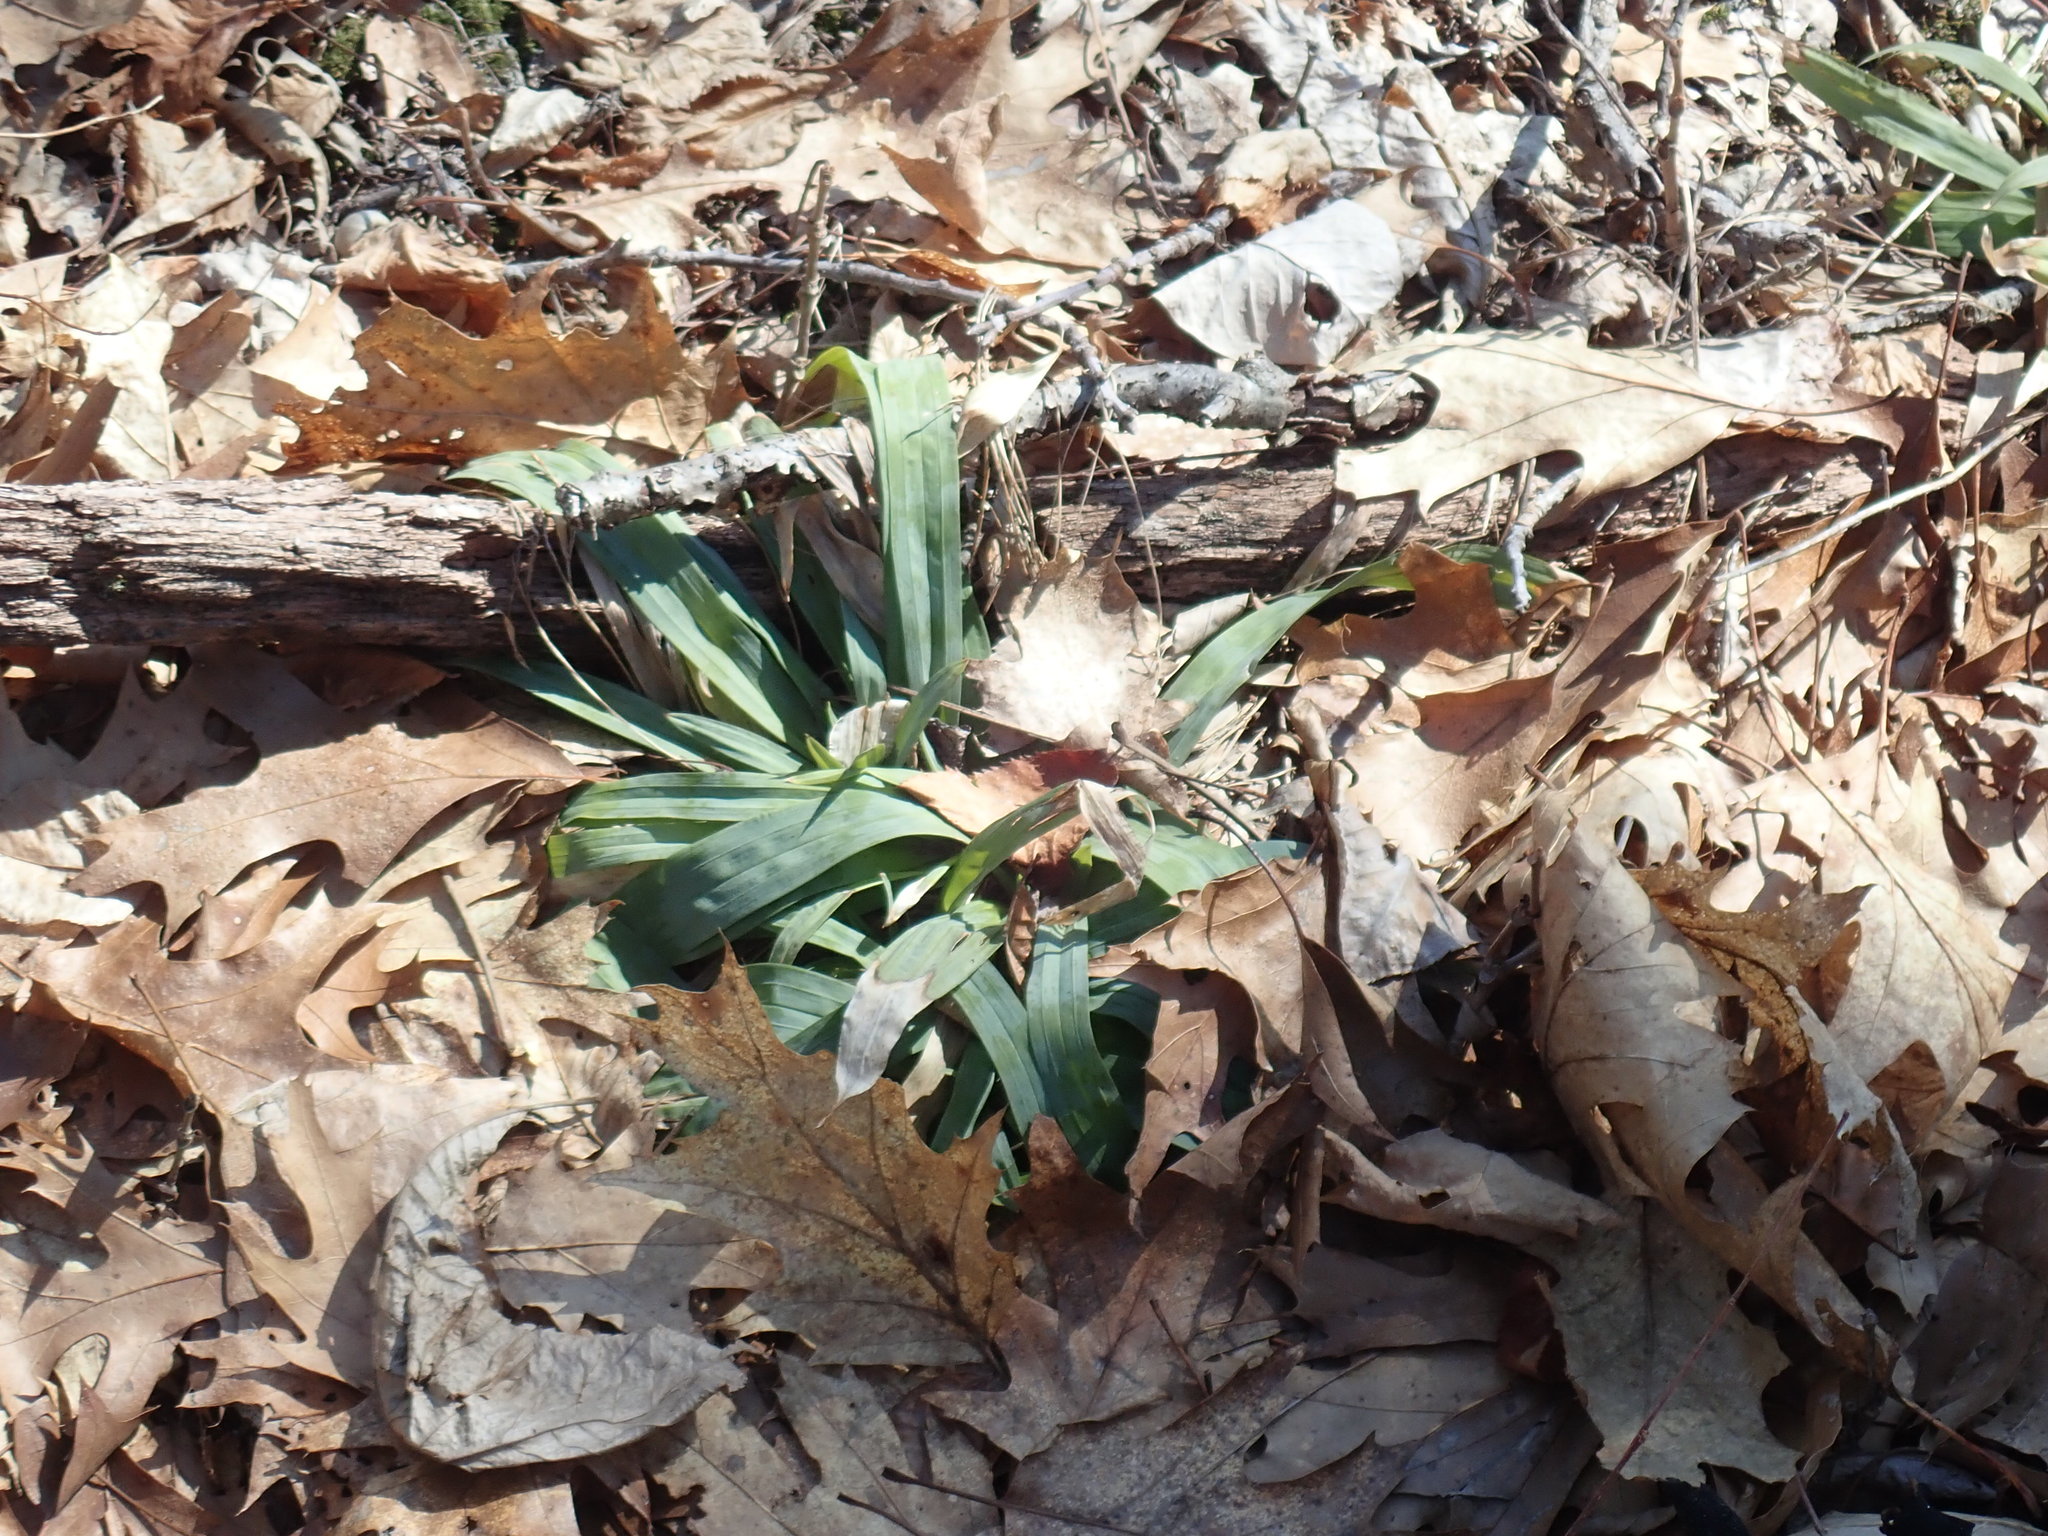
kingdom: Plantae
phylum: Tracheophyta
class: Liliopsida
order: Poales
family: Cyperaceae
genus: Carex
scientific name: Carex platyphylla
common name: Broad-leaved sedge
